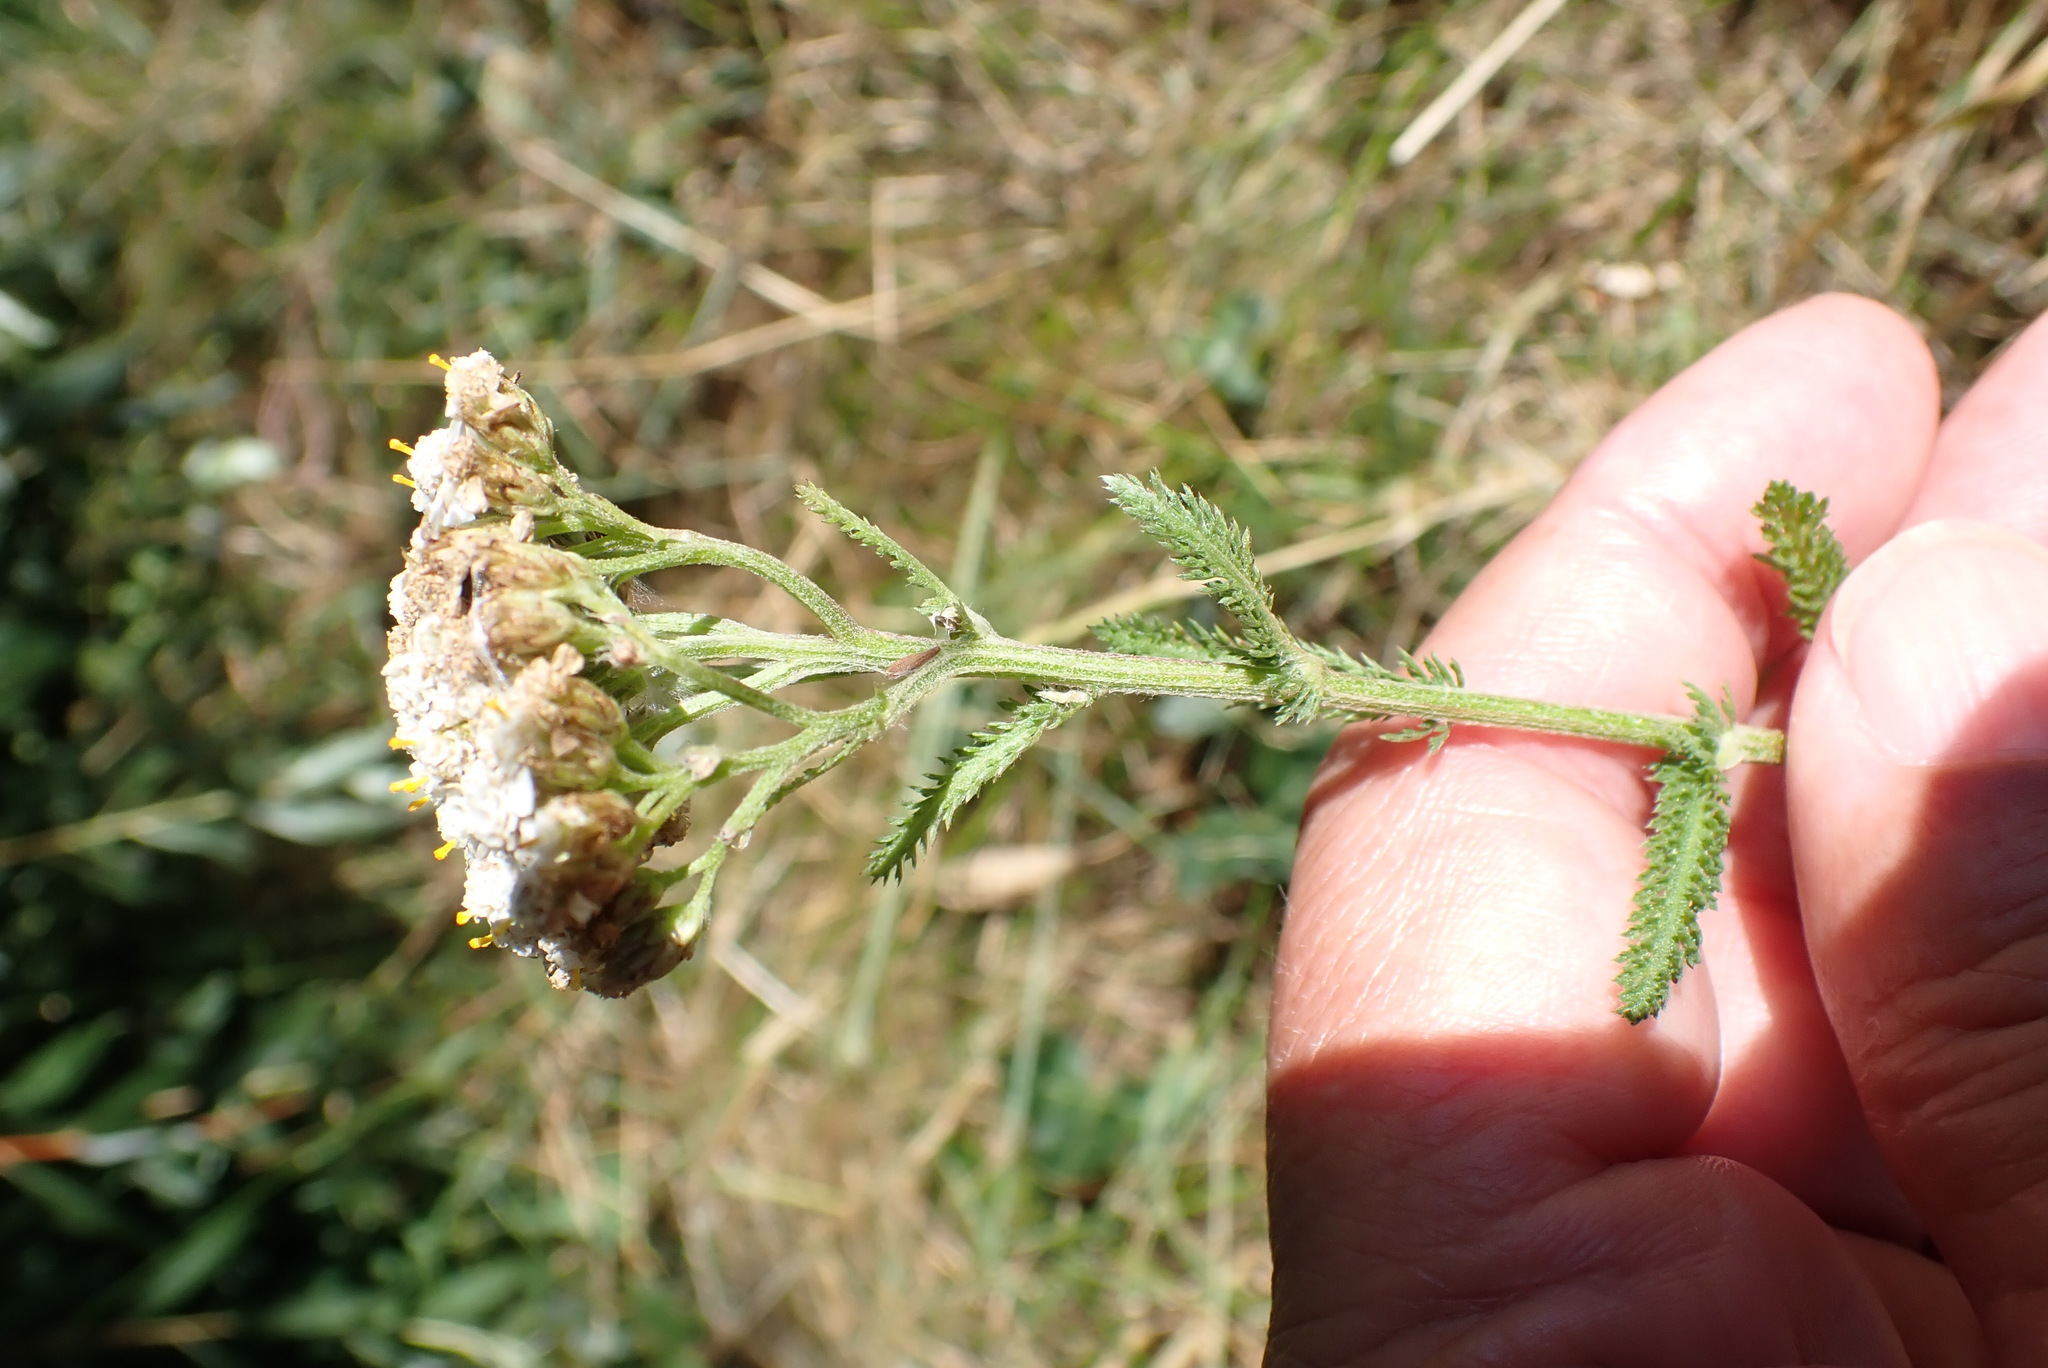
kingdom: Plantae
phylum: Tracheophyta
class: Magnoliopsida
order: Asterales
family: Asteraceae
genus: Achillea
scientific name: Achillea millefolium
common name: Yarrow
